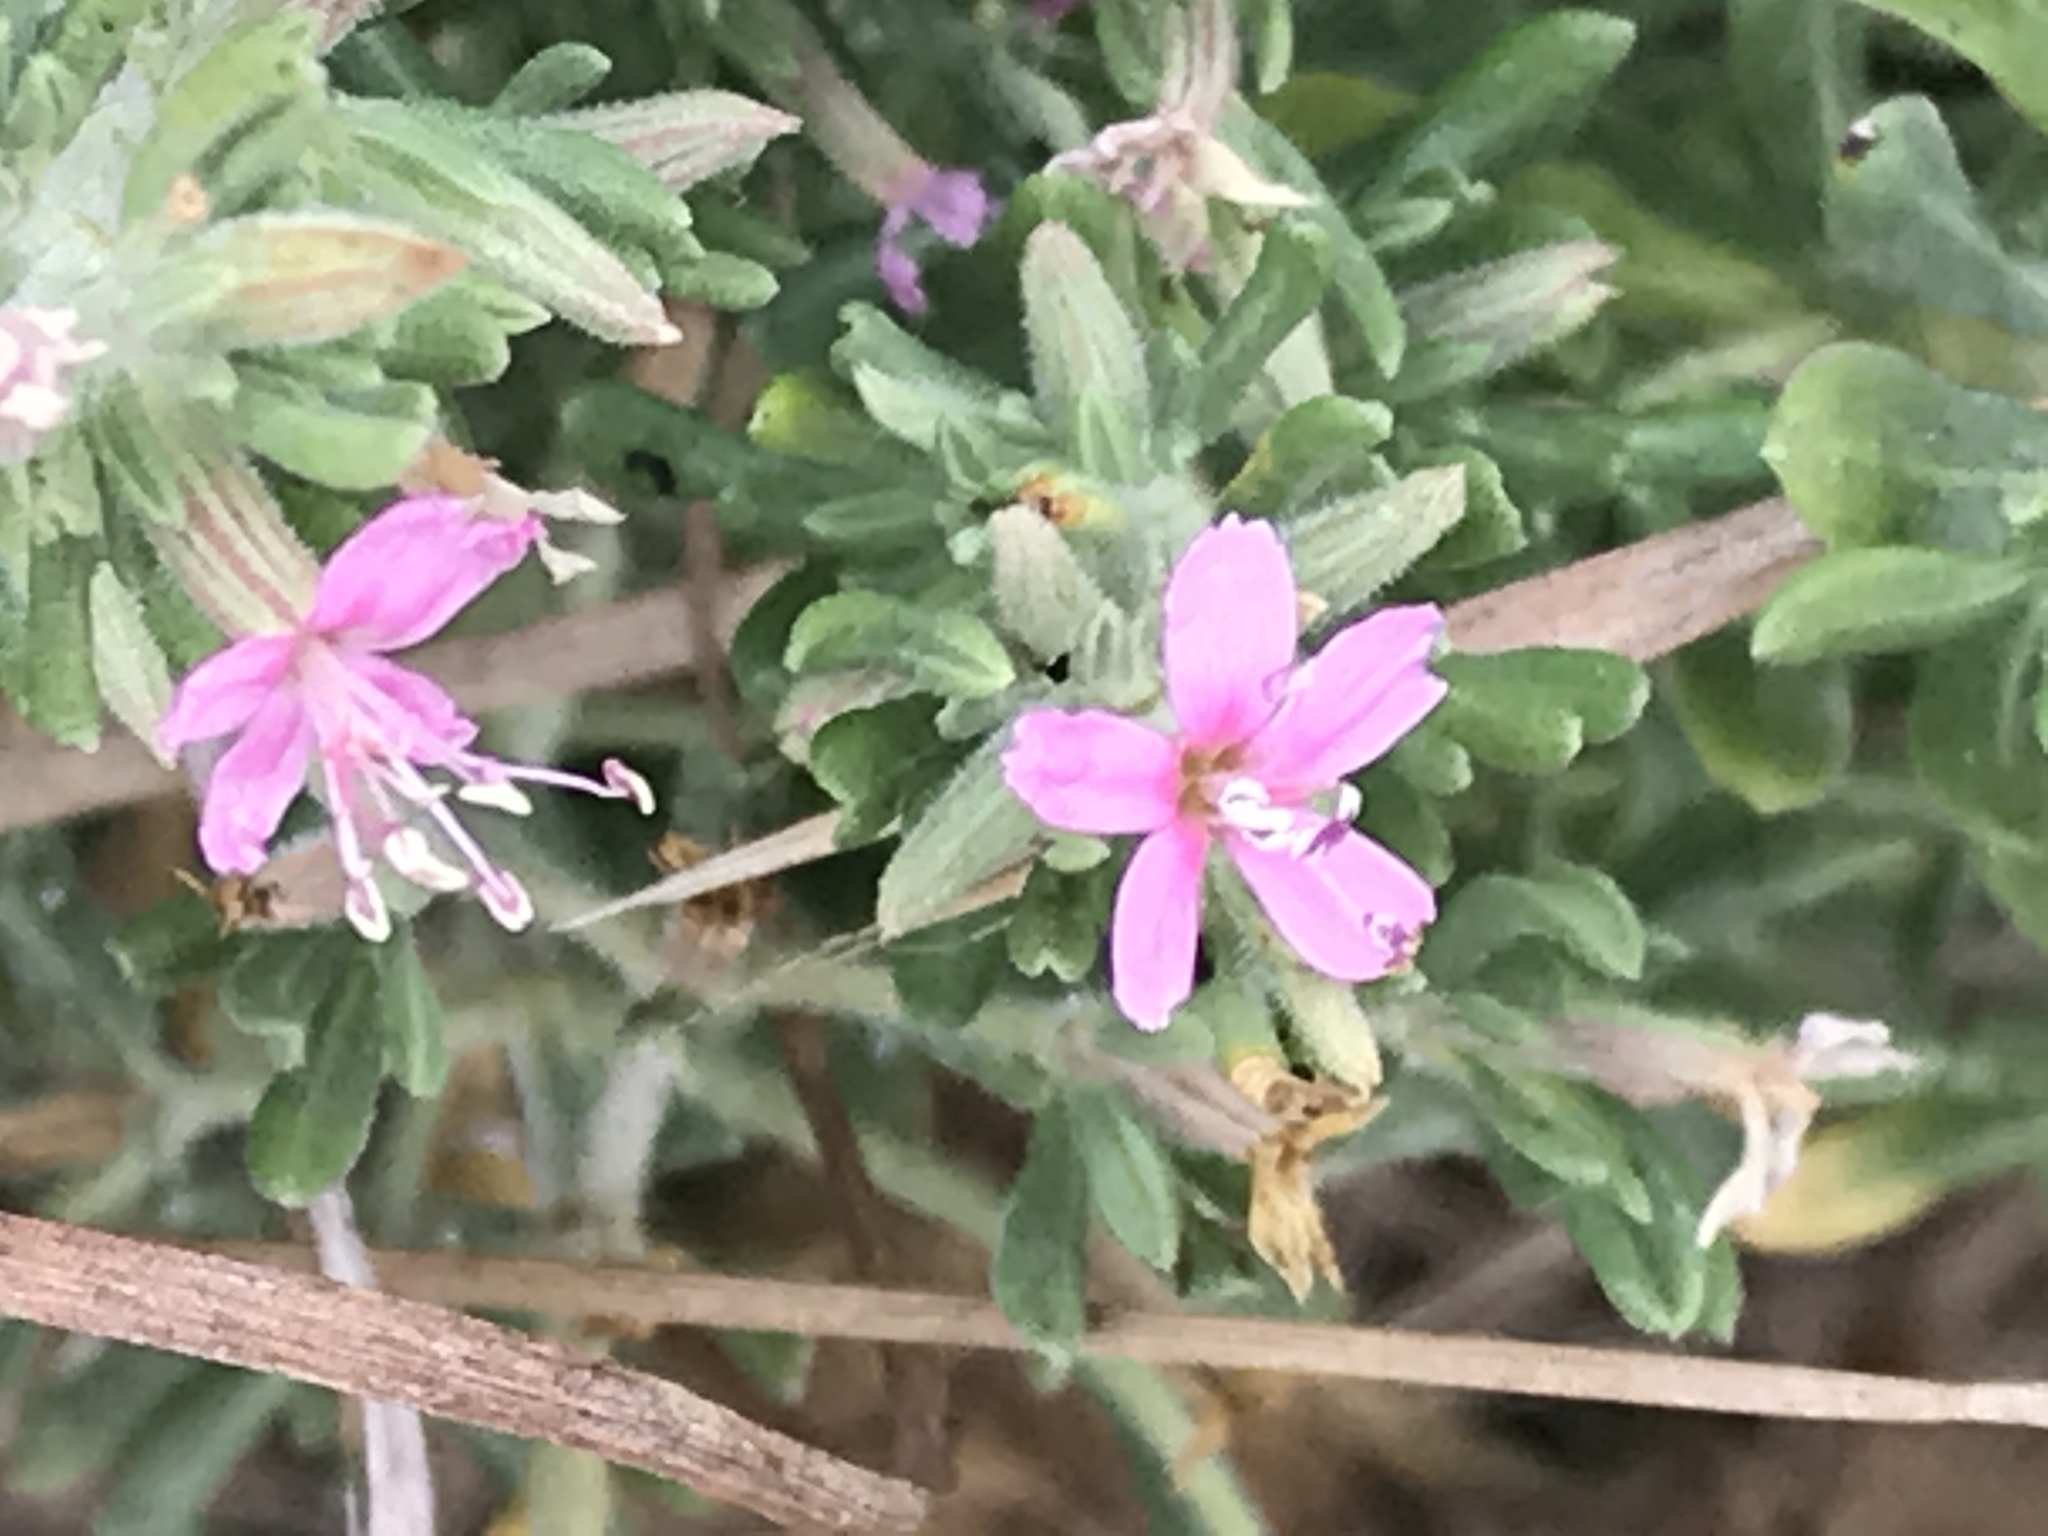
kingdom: Plantae
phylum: Tracheophyta
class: Magnoliopsida
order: Caryophyllales
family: Frankeniaceae
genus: Frankenia
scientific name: Frankenia salina
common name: Alkali seaheath
